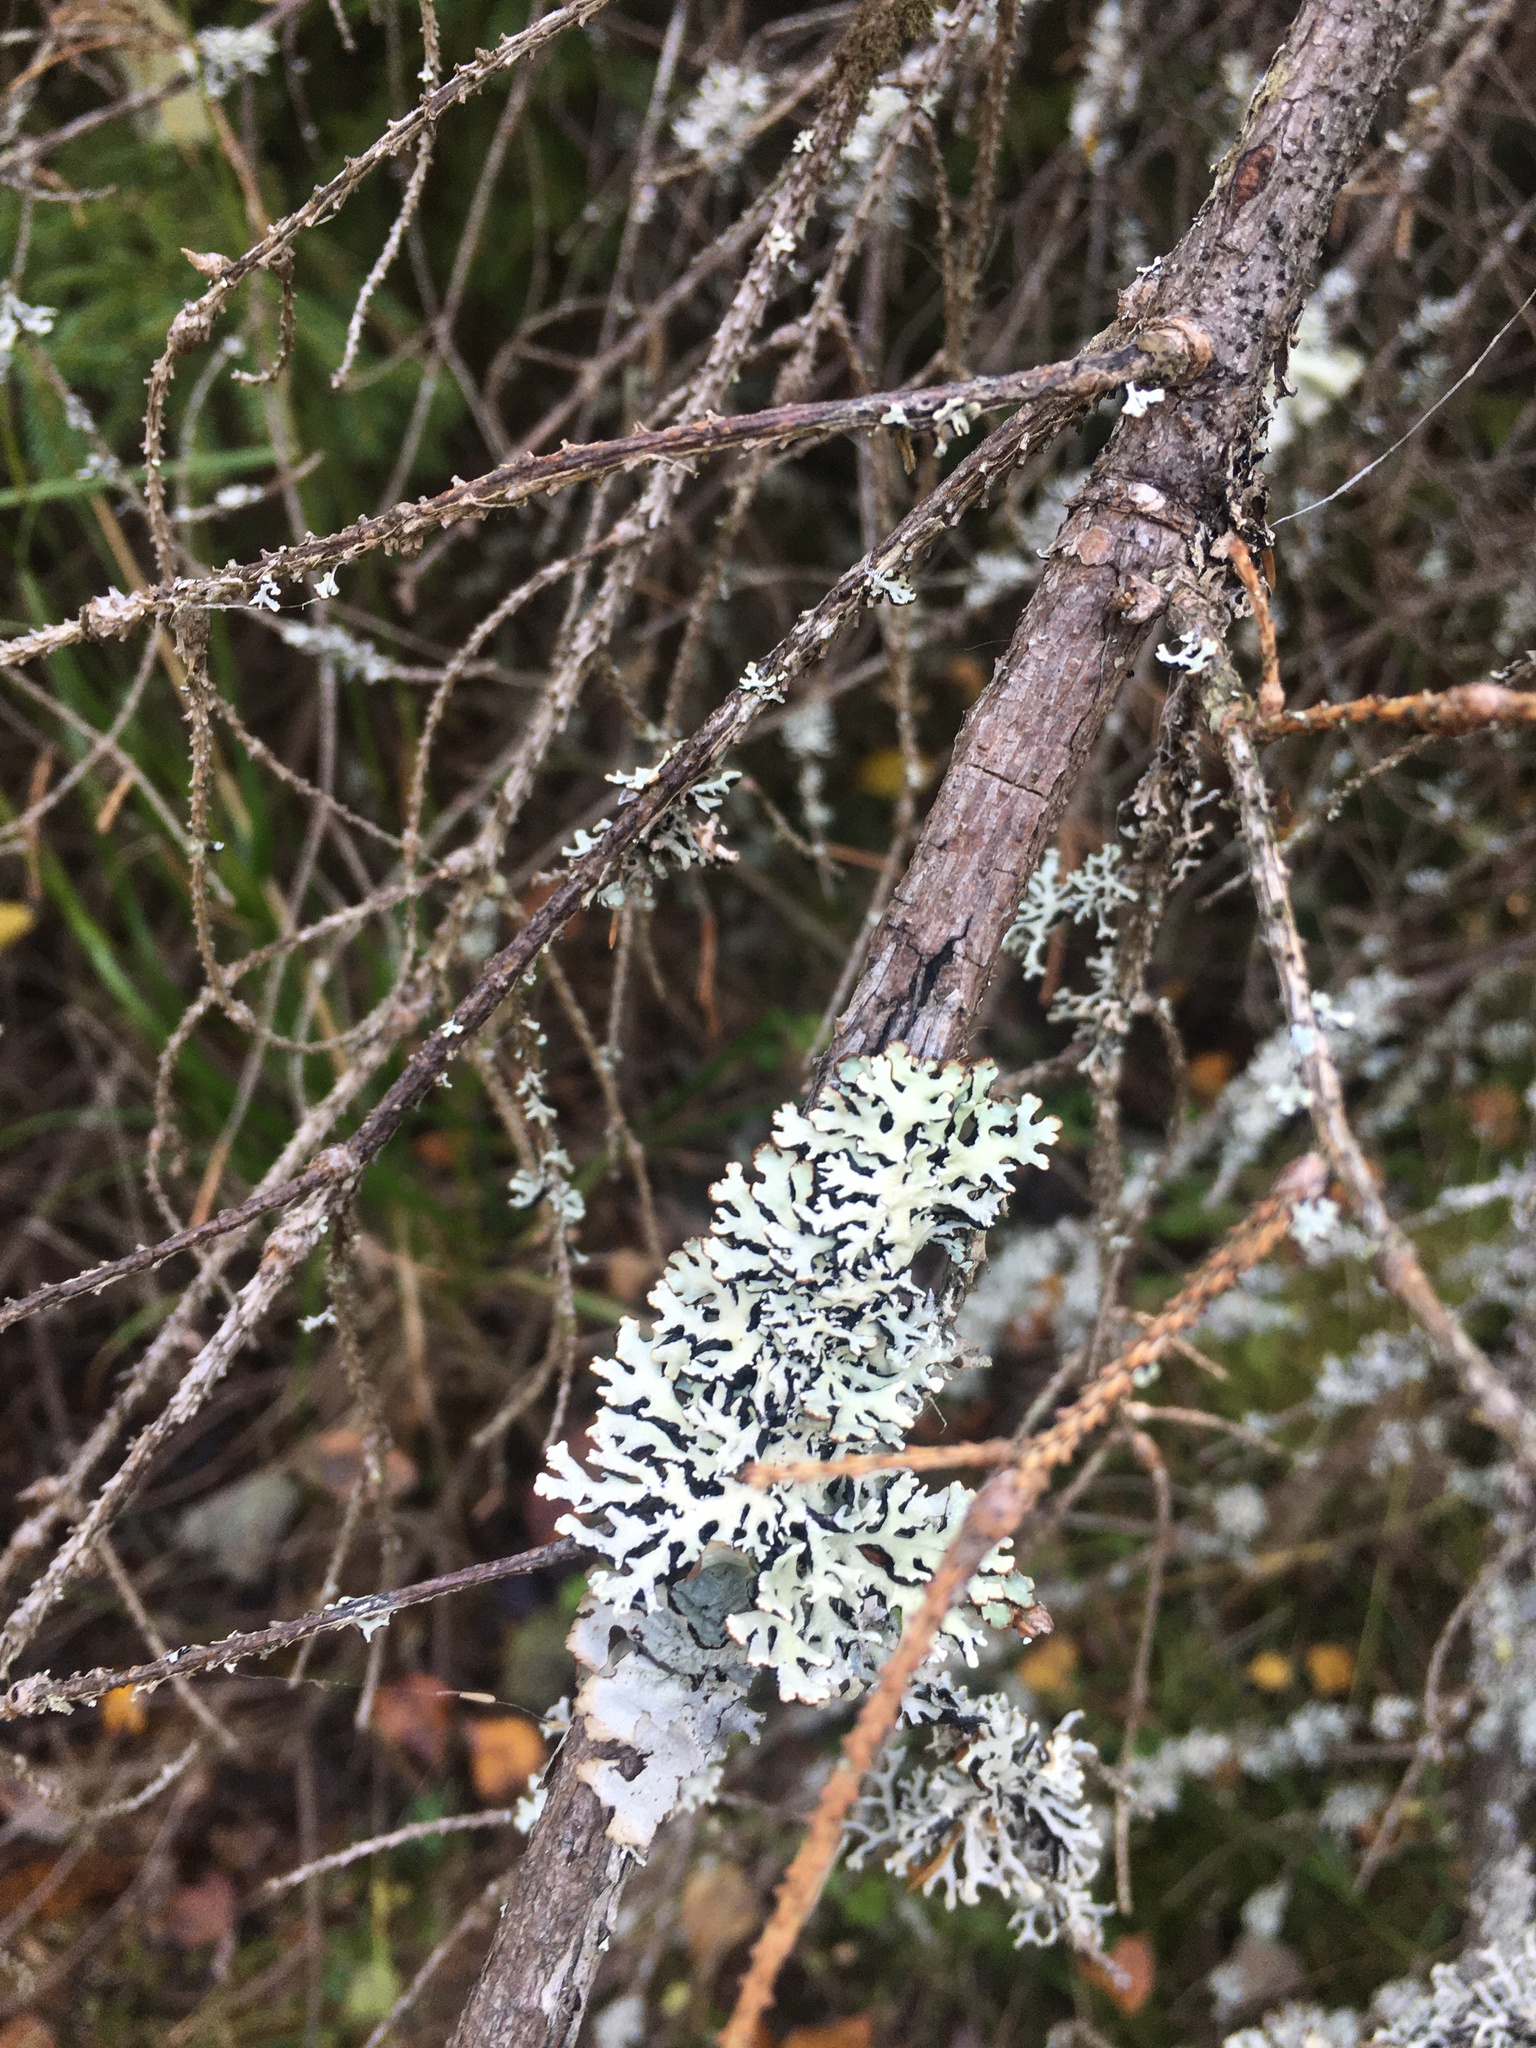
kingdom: Fungi
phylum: Ascomycota
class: Lecanoromycetes
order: Lecanorales
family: Parmeliaceae
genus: Hypogymnia
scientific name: Hypogymnia physodes
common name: Dark crottle
